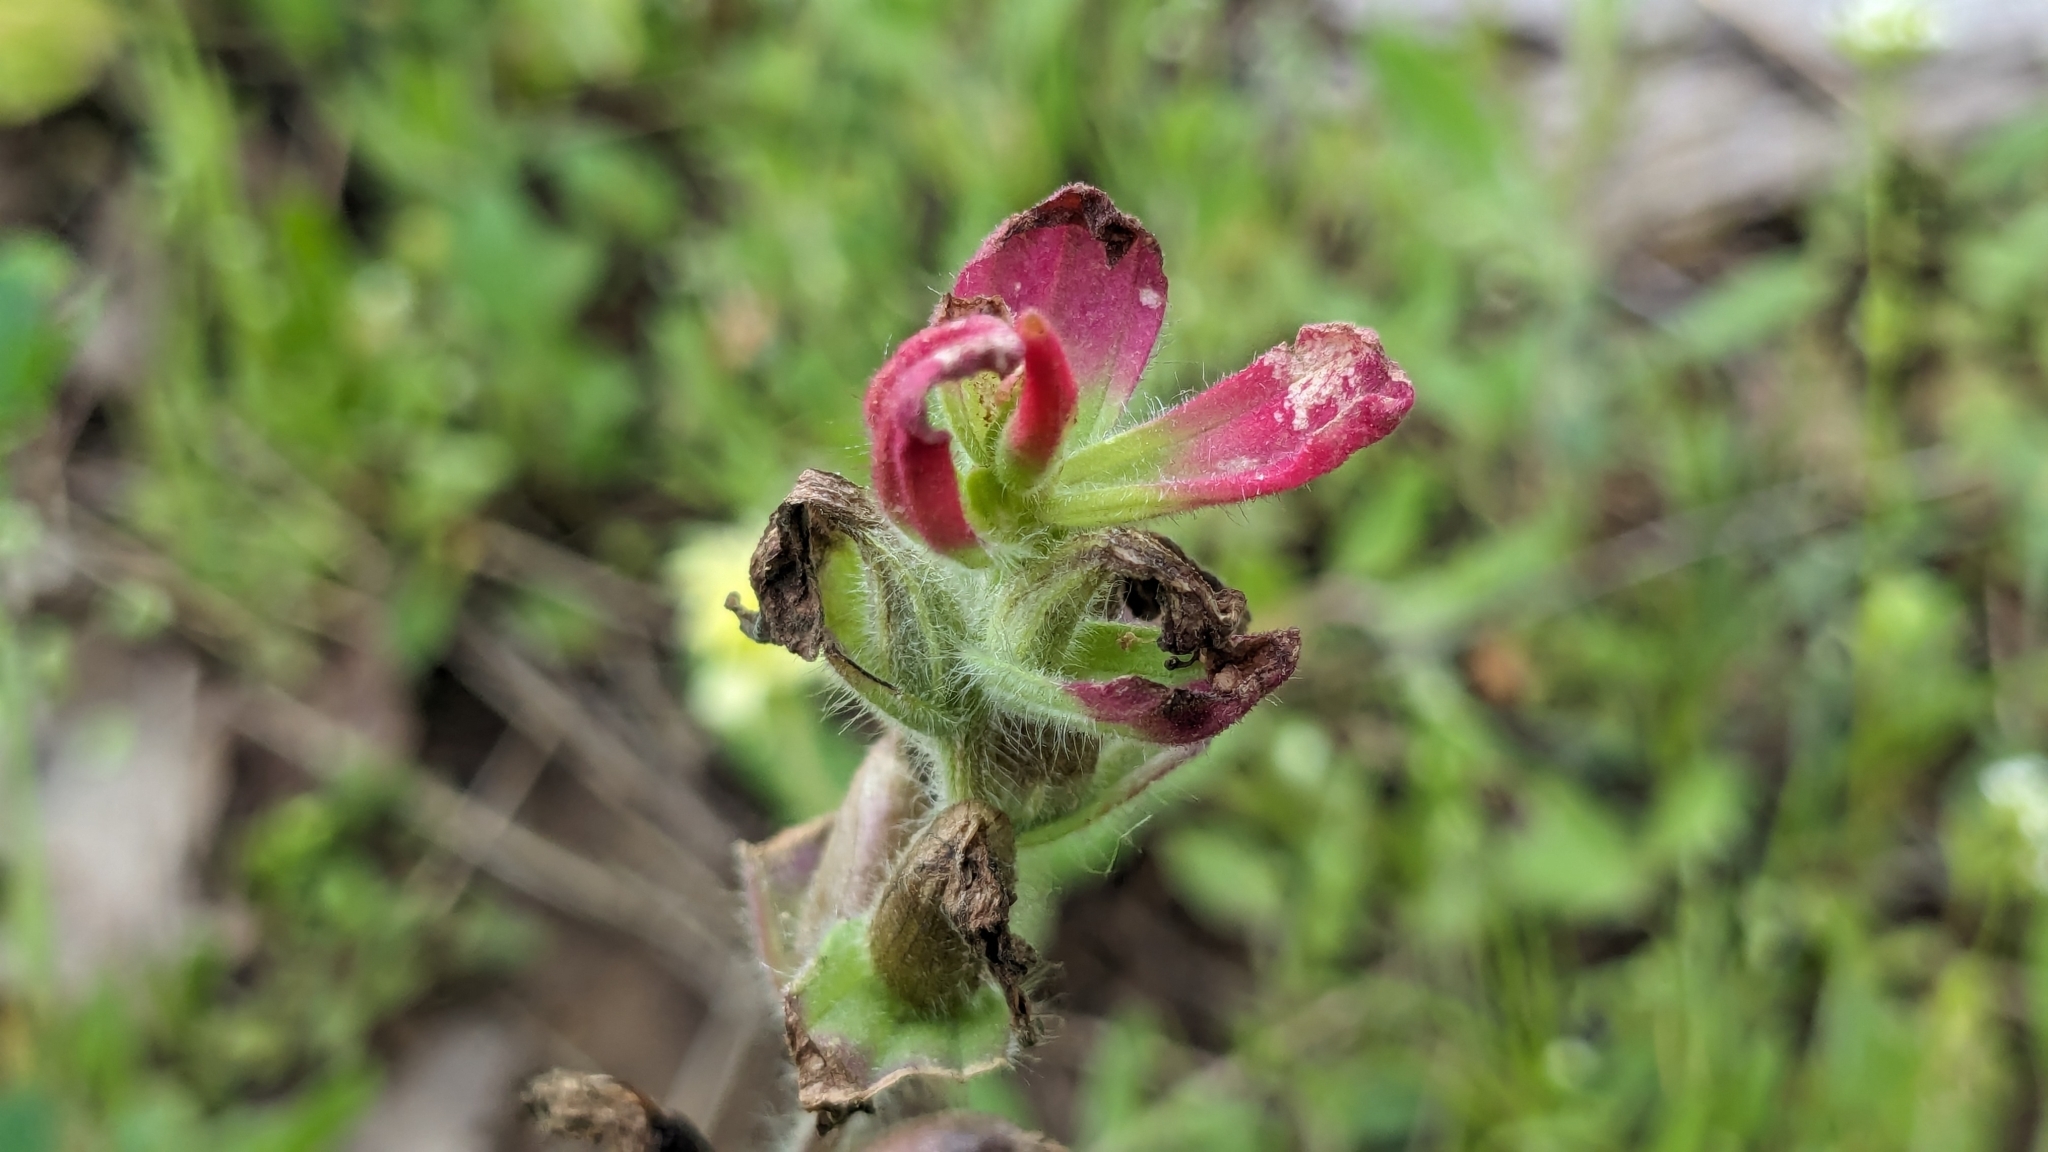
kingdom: Plantae
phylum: Tracheophyta
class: Magnoliopsida
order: Lamiales
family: Orobanchaceae
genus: Castilleja
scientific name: Castilleja indivisa
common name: Texas paintbrush
